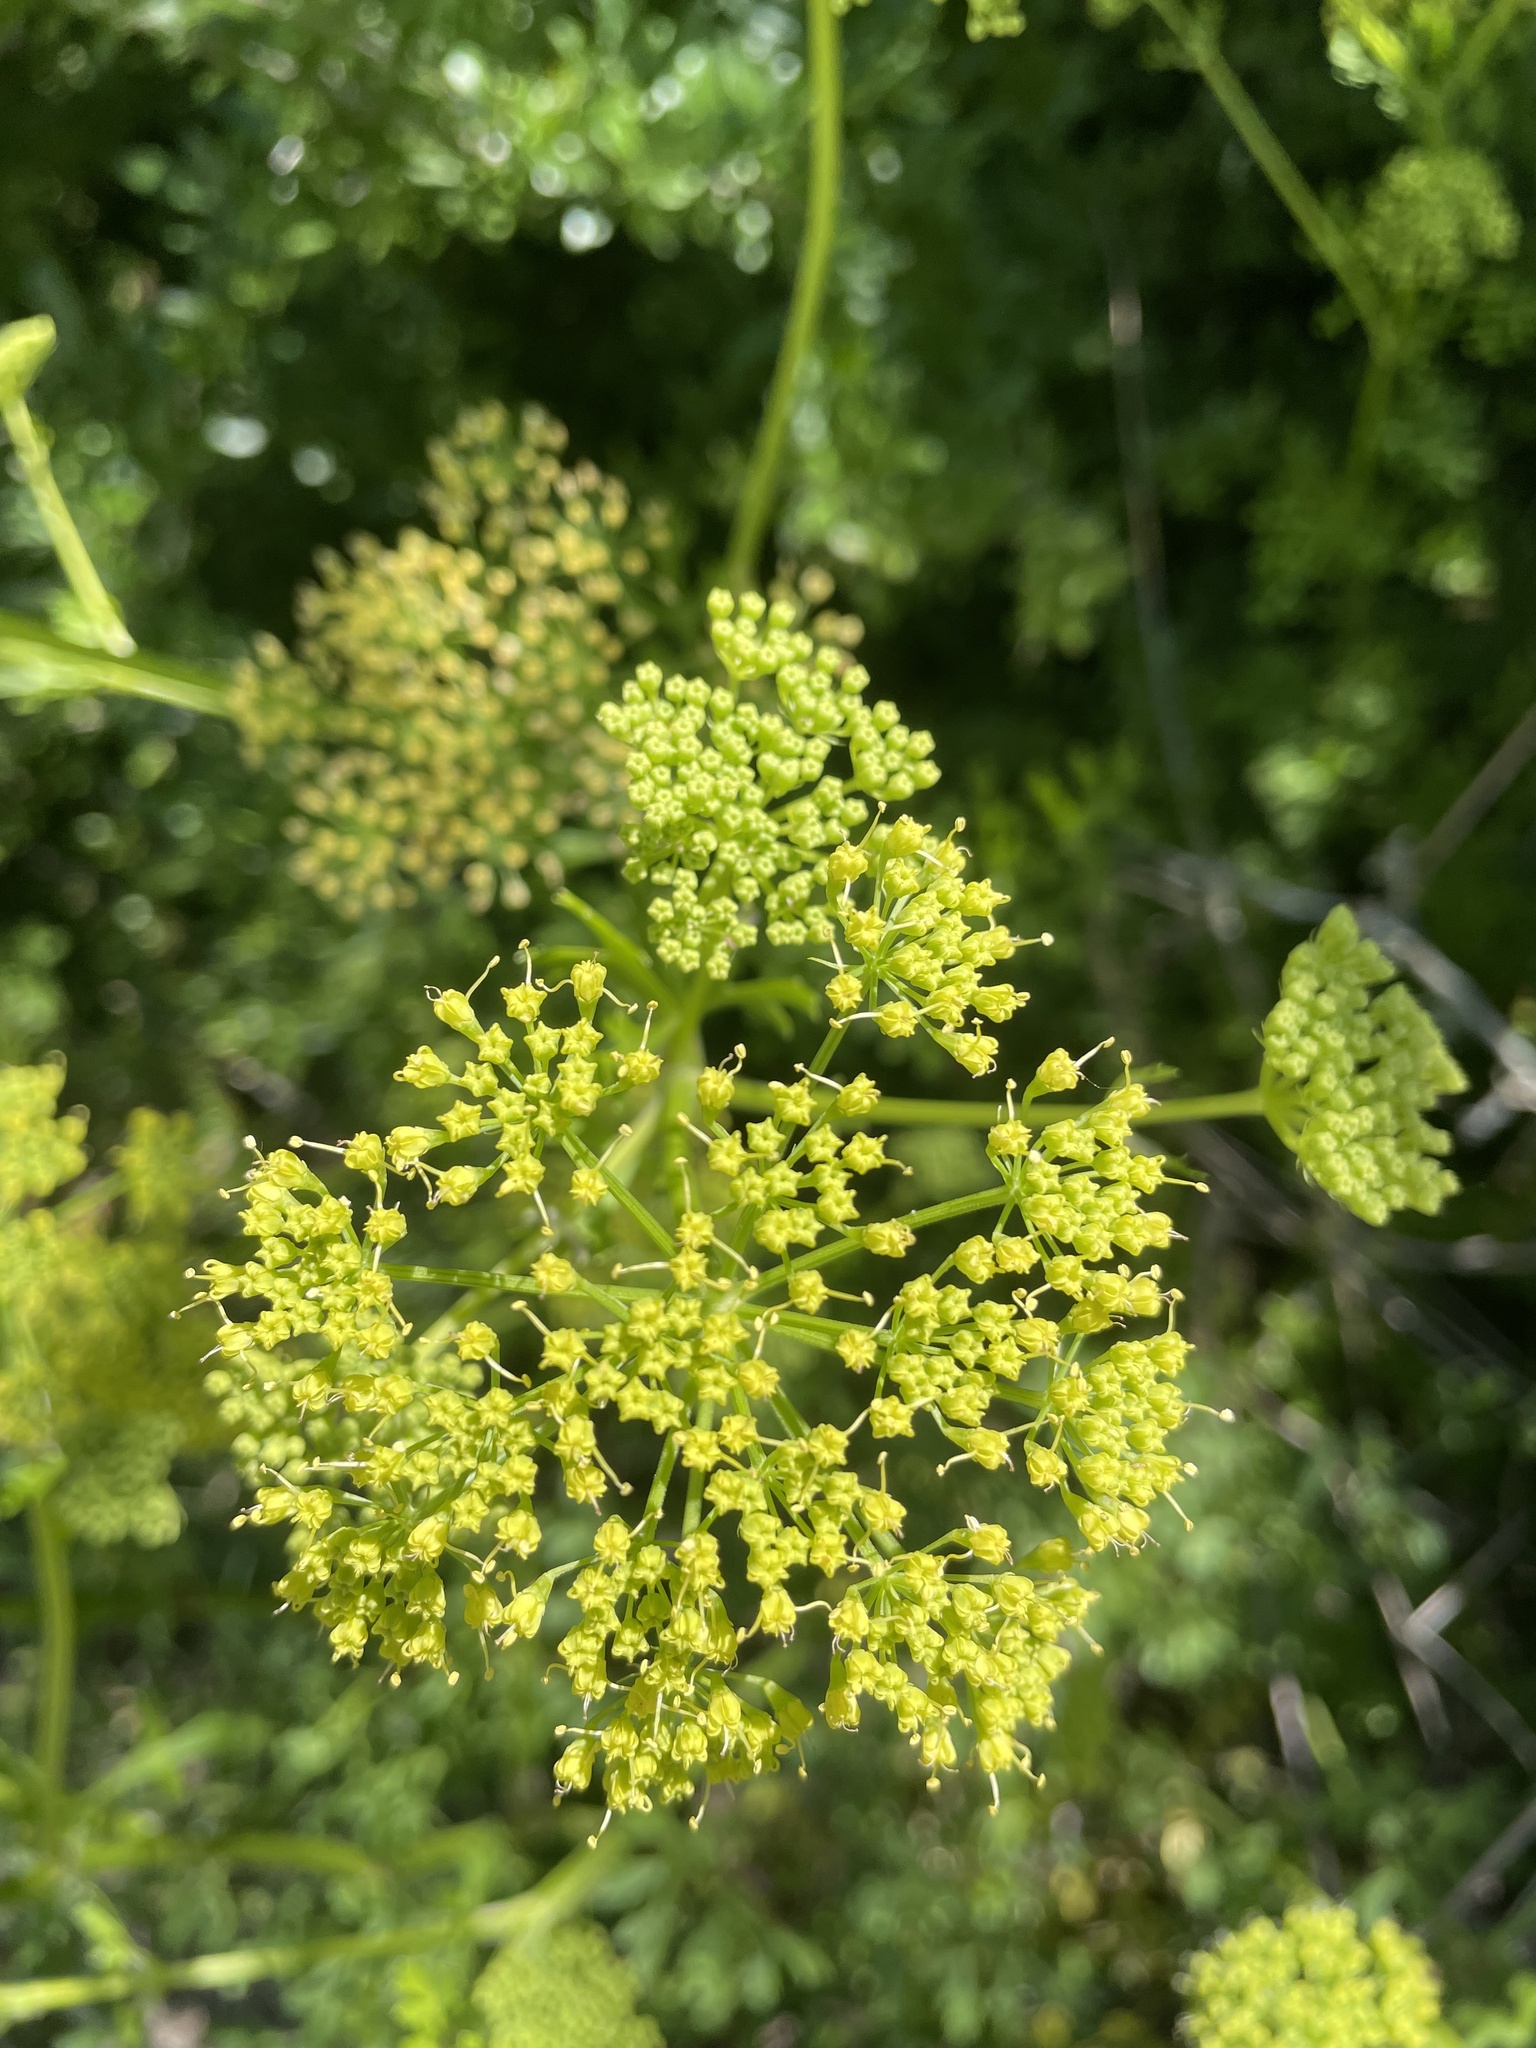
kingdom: Plantae
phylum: Tracheophyta
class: Magnoliopsida
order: Apiales
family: Apiaceae
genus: Polytaenia
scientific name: Polytaenia texana
